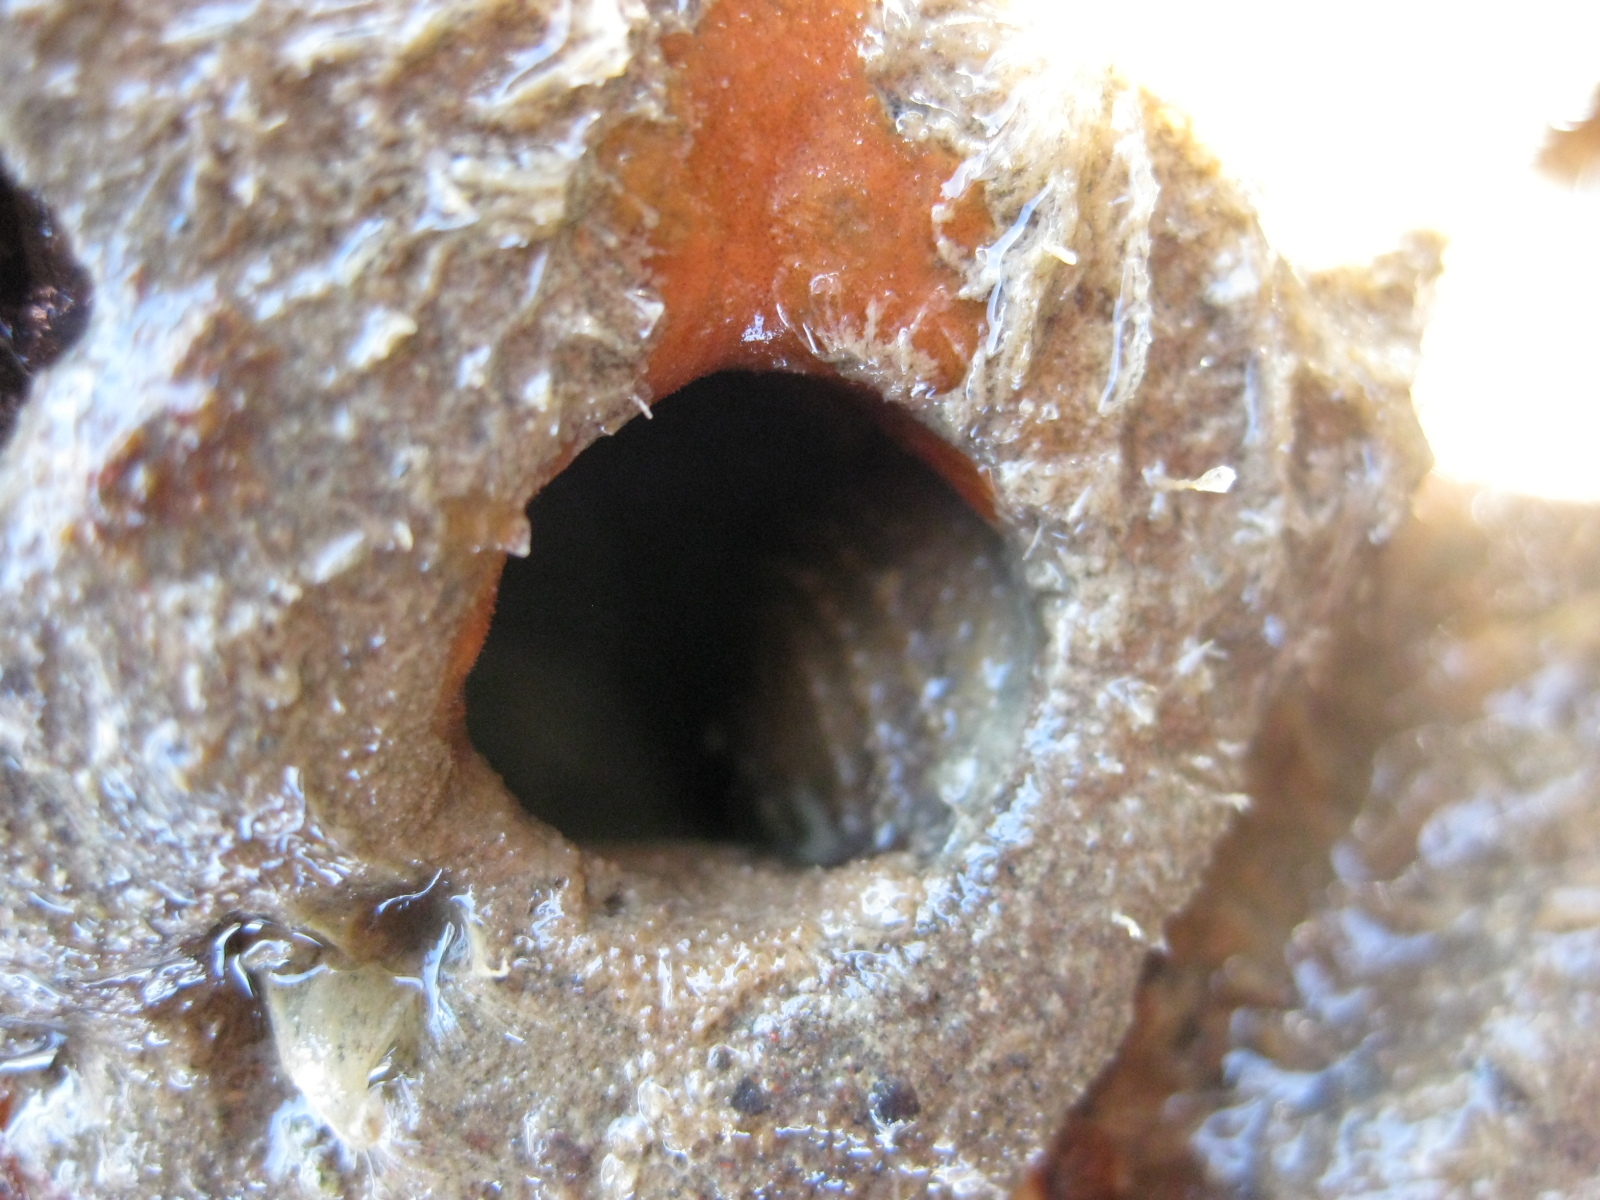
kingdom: Animalia
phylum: Mollusca
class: Gastropoda
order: Littorinimorpha
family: Calyptraeidae
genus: Sigapatella
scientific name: Sigapatella novaezelandiae
